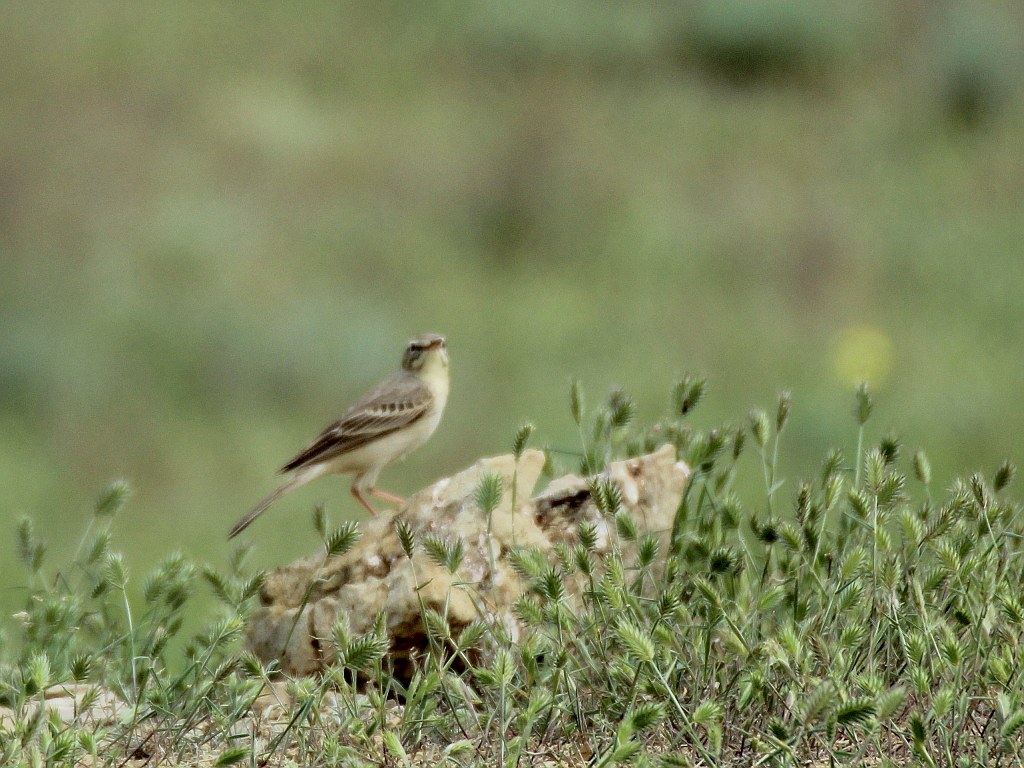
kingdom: Animalia
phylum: Chordata
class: Aves
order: Passeriformes
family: Motacillidae
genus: Anthus
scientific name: Anthus campestris
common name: Tawny pipit
